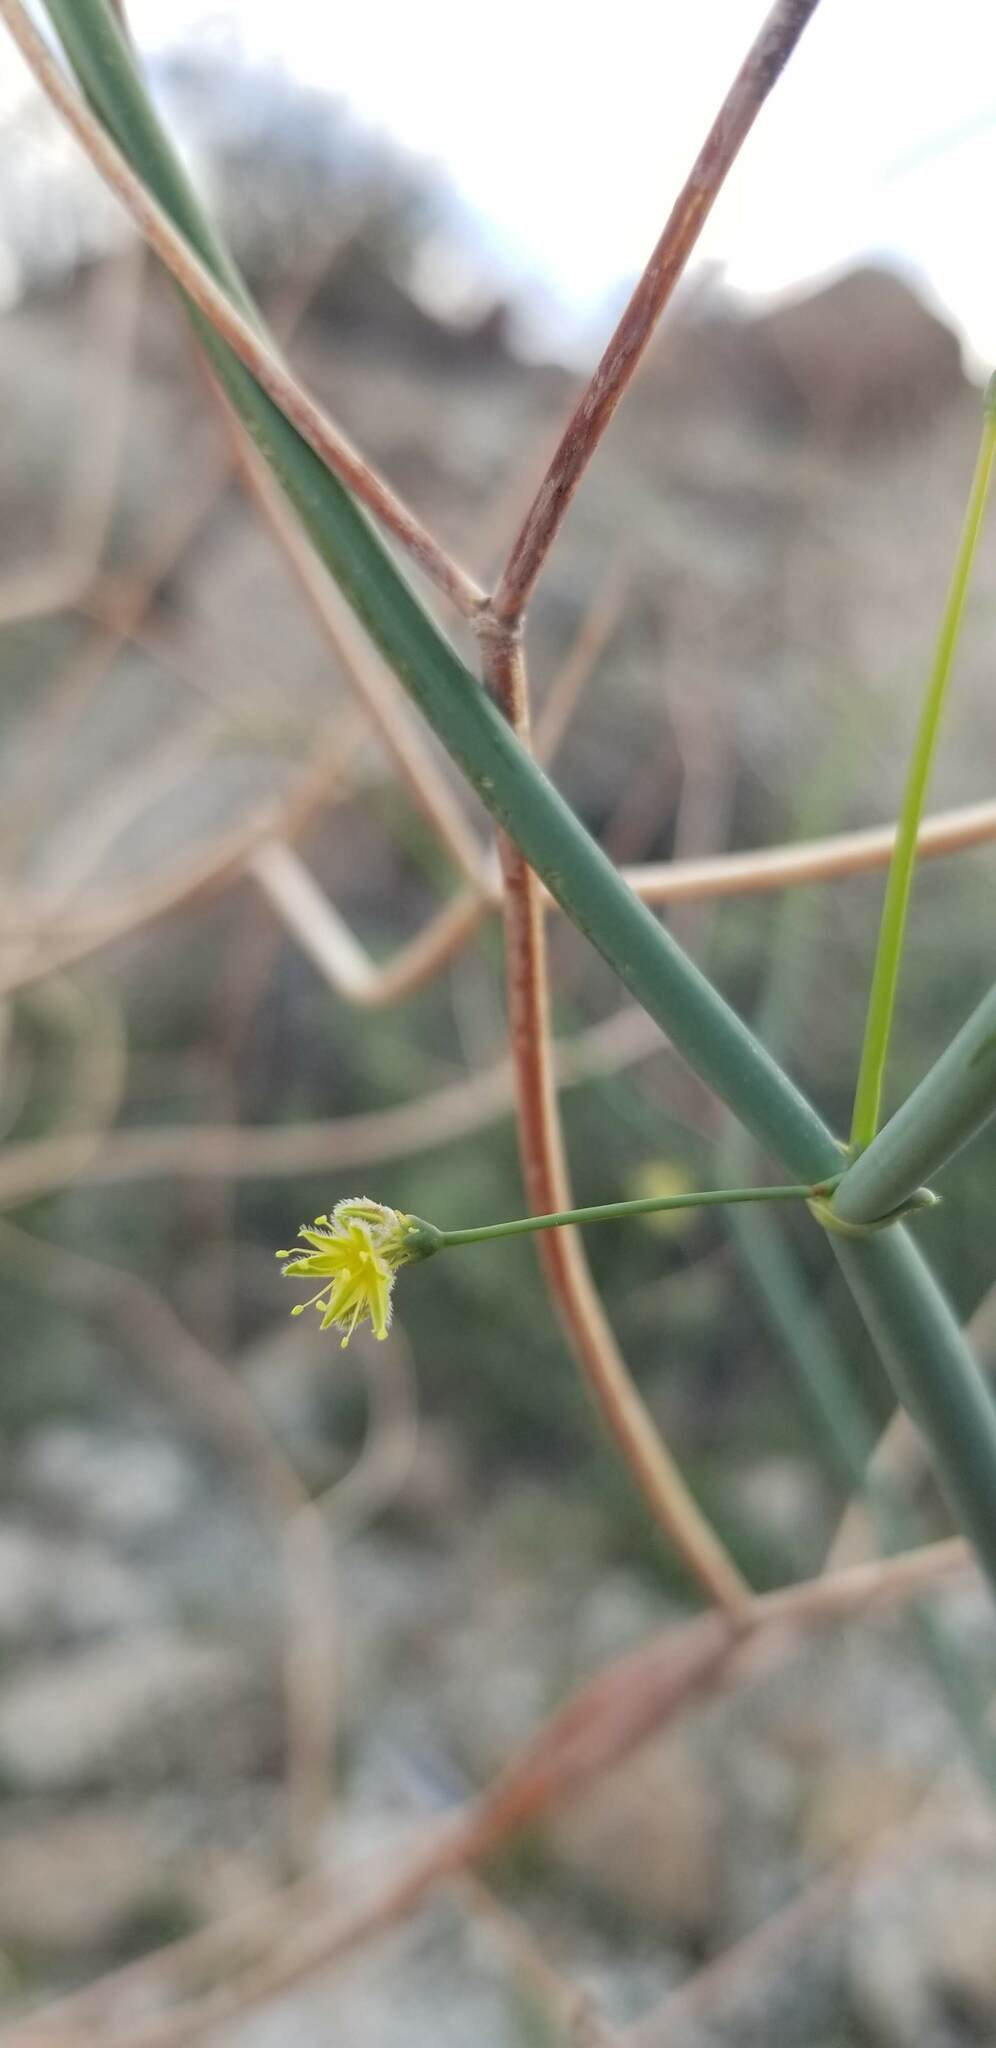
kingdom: Plantae
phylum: Tracheophyta
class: Magnoliopsida
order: Caryophyllales
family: Polygonaceae
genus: Eriogonum
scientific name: Eriogonum inflatum
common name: Desert trumpet
